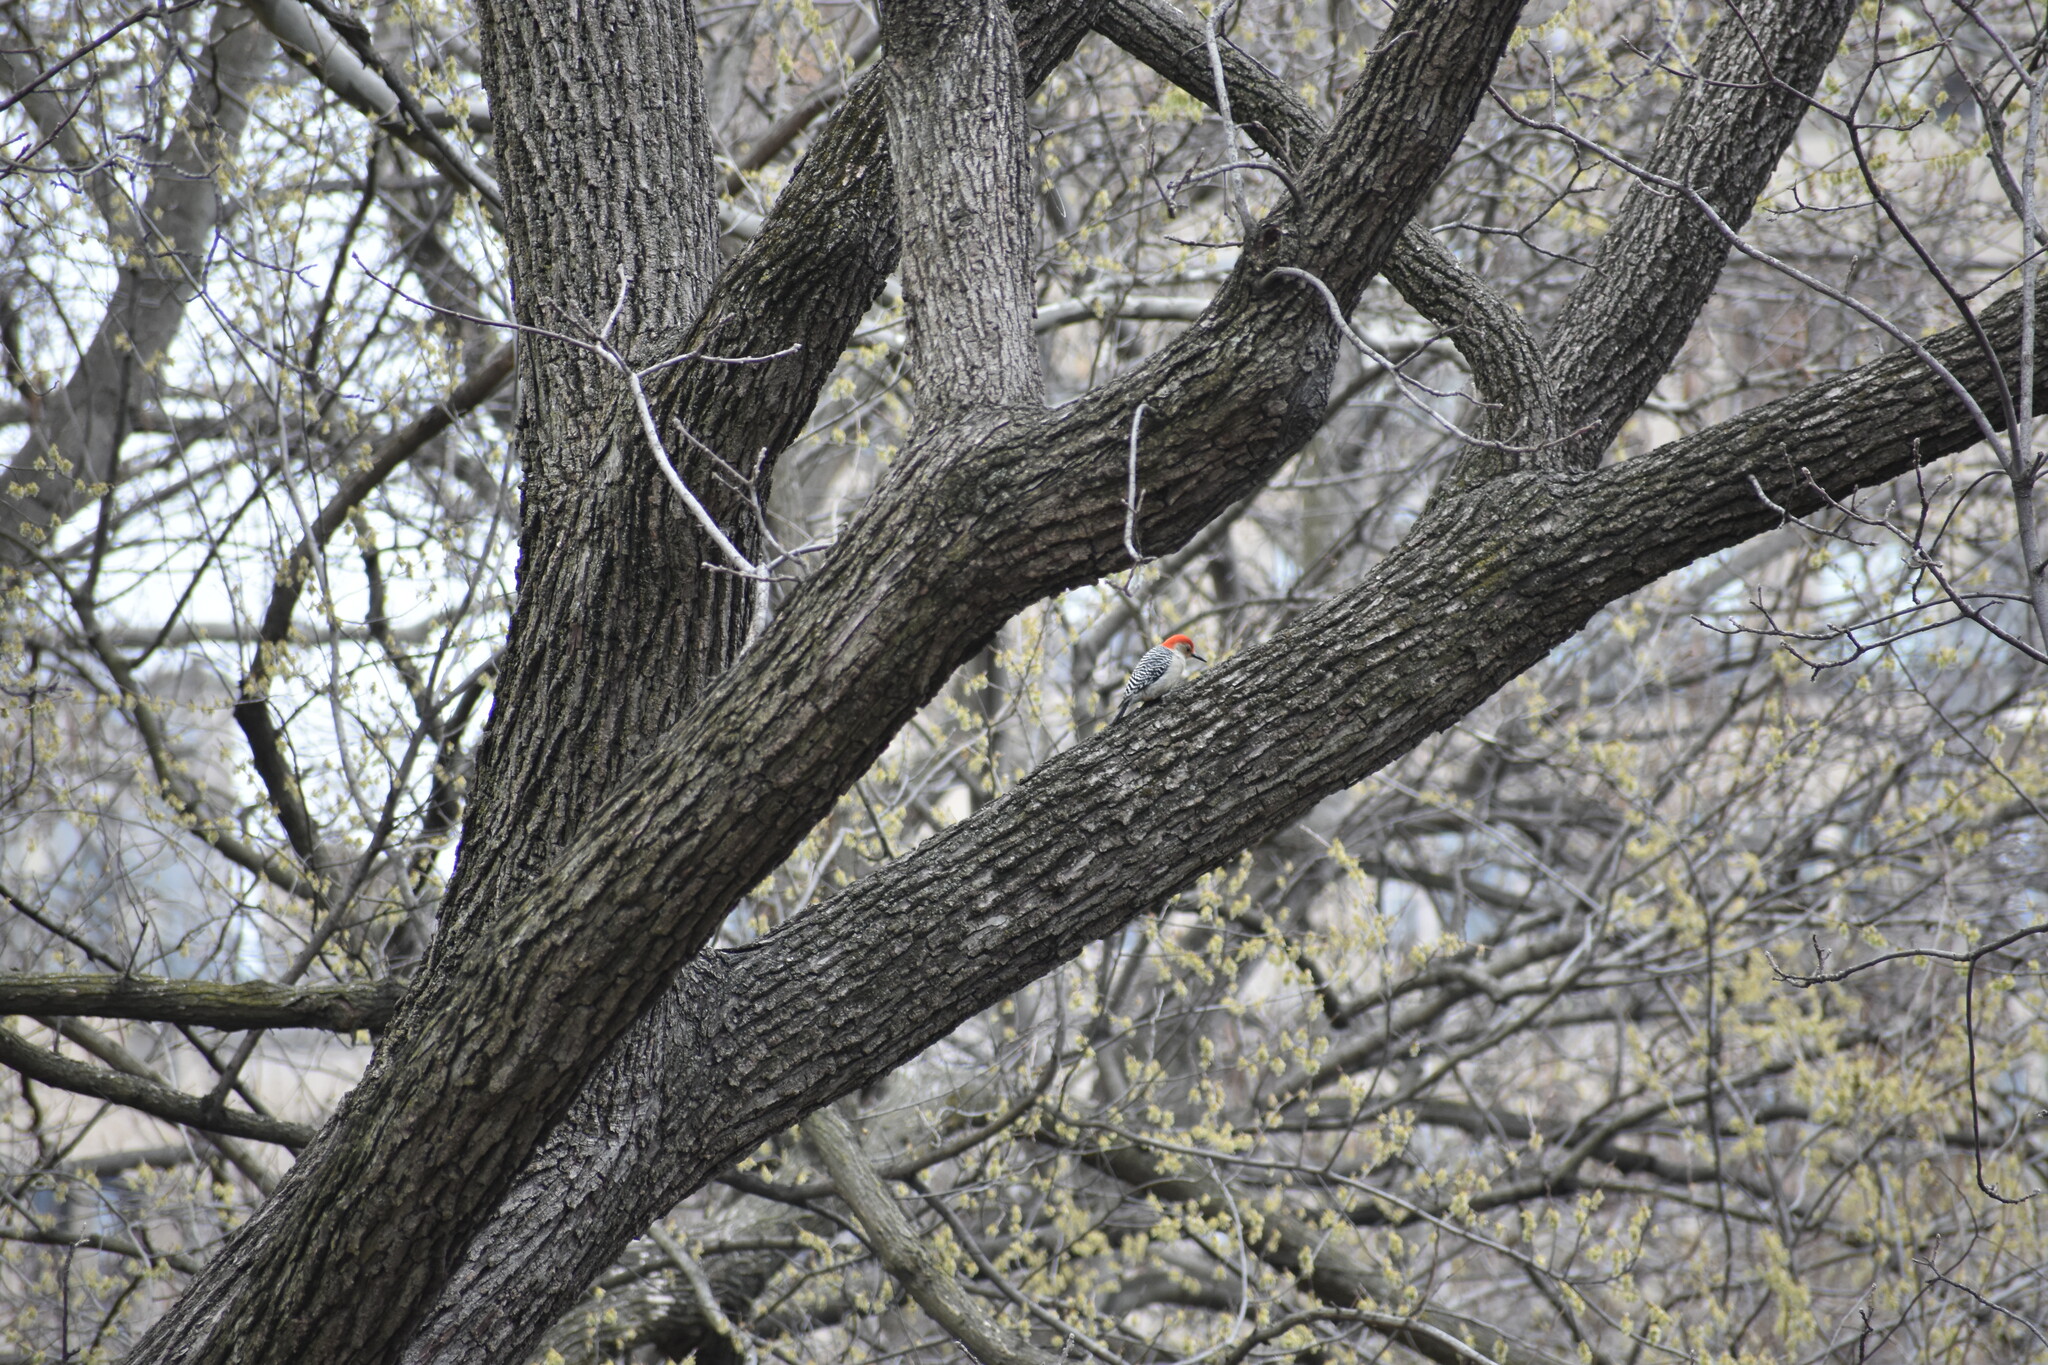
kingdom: Animalia
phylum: Chordata
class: Aves
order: Piciformes
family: Picidae
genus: Melanerpes
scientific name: Melanerpes carolinus
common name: Red-bellied woodpecker
